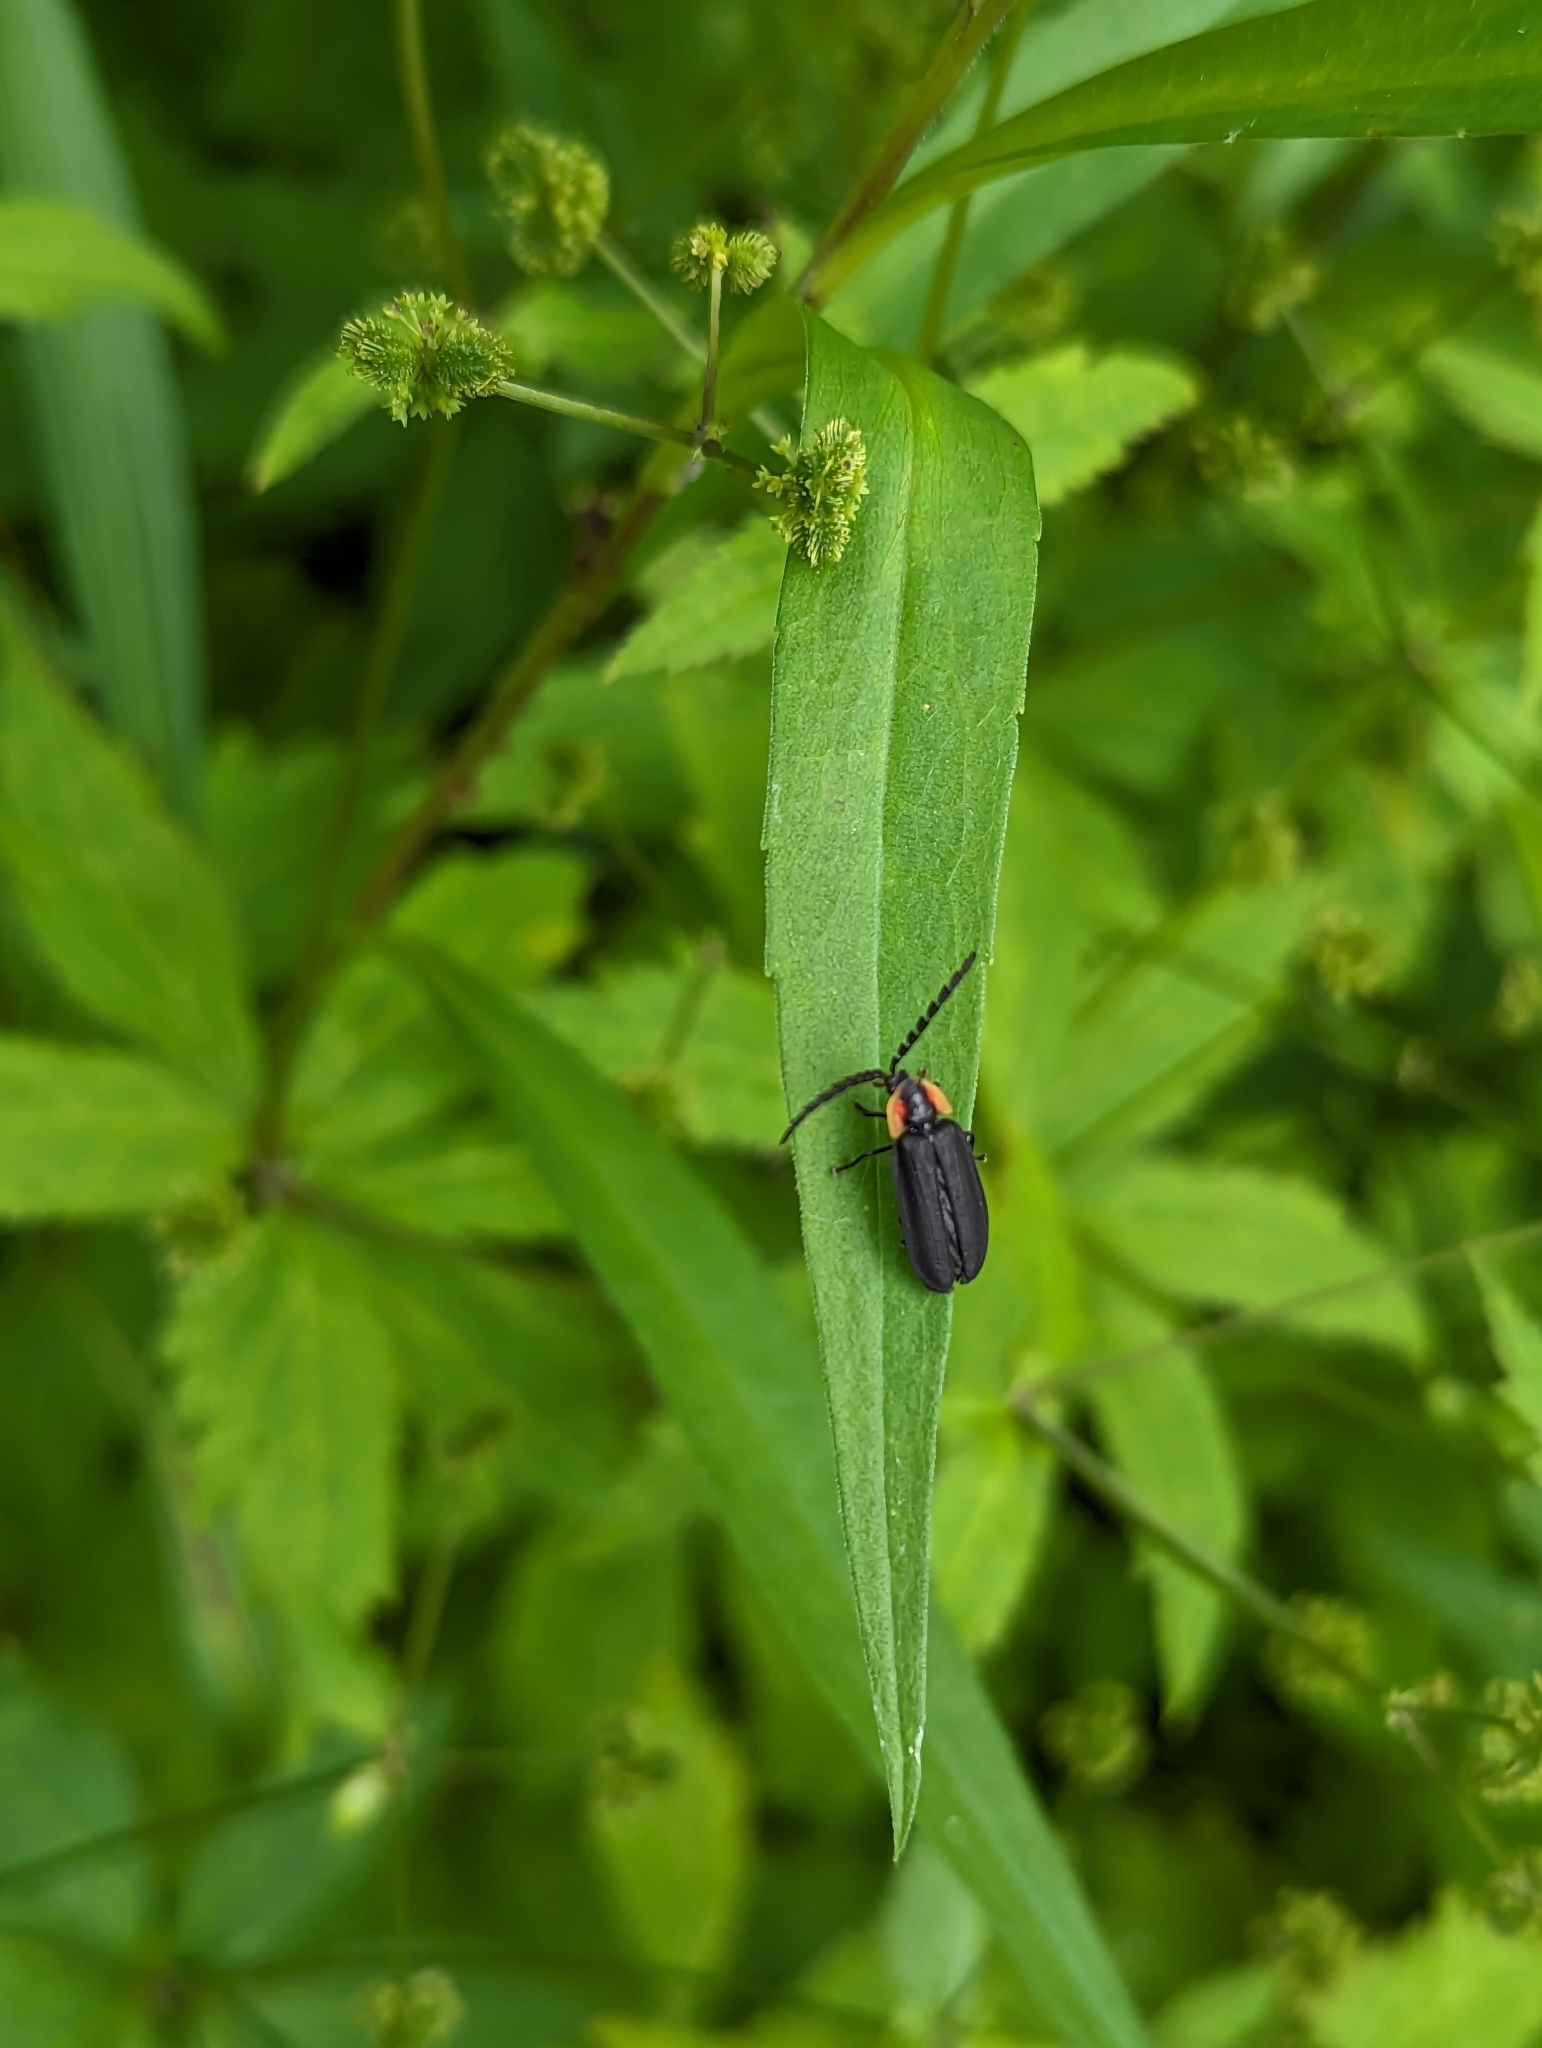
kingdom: Animalia
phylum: Arthropoda
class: Insecta
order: Coleoptera
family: Lampyridae
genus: Lucidota
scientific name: Lucidota atra
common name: Black firefly
